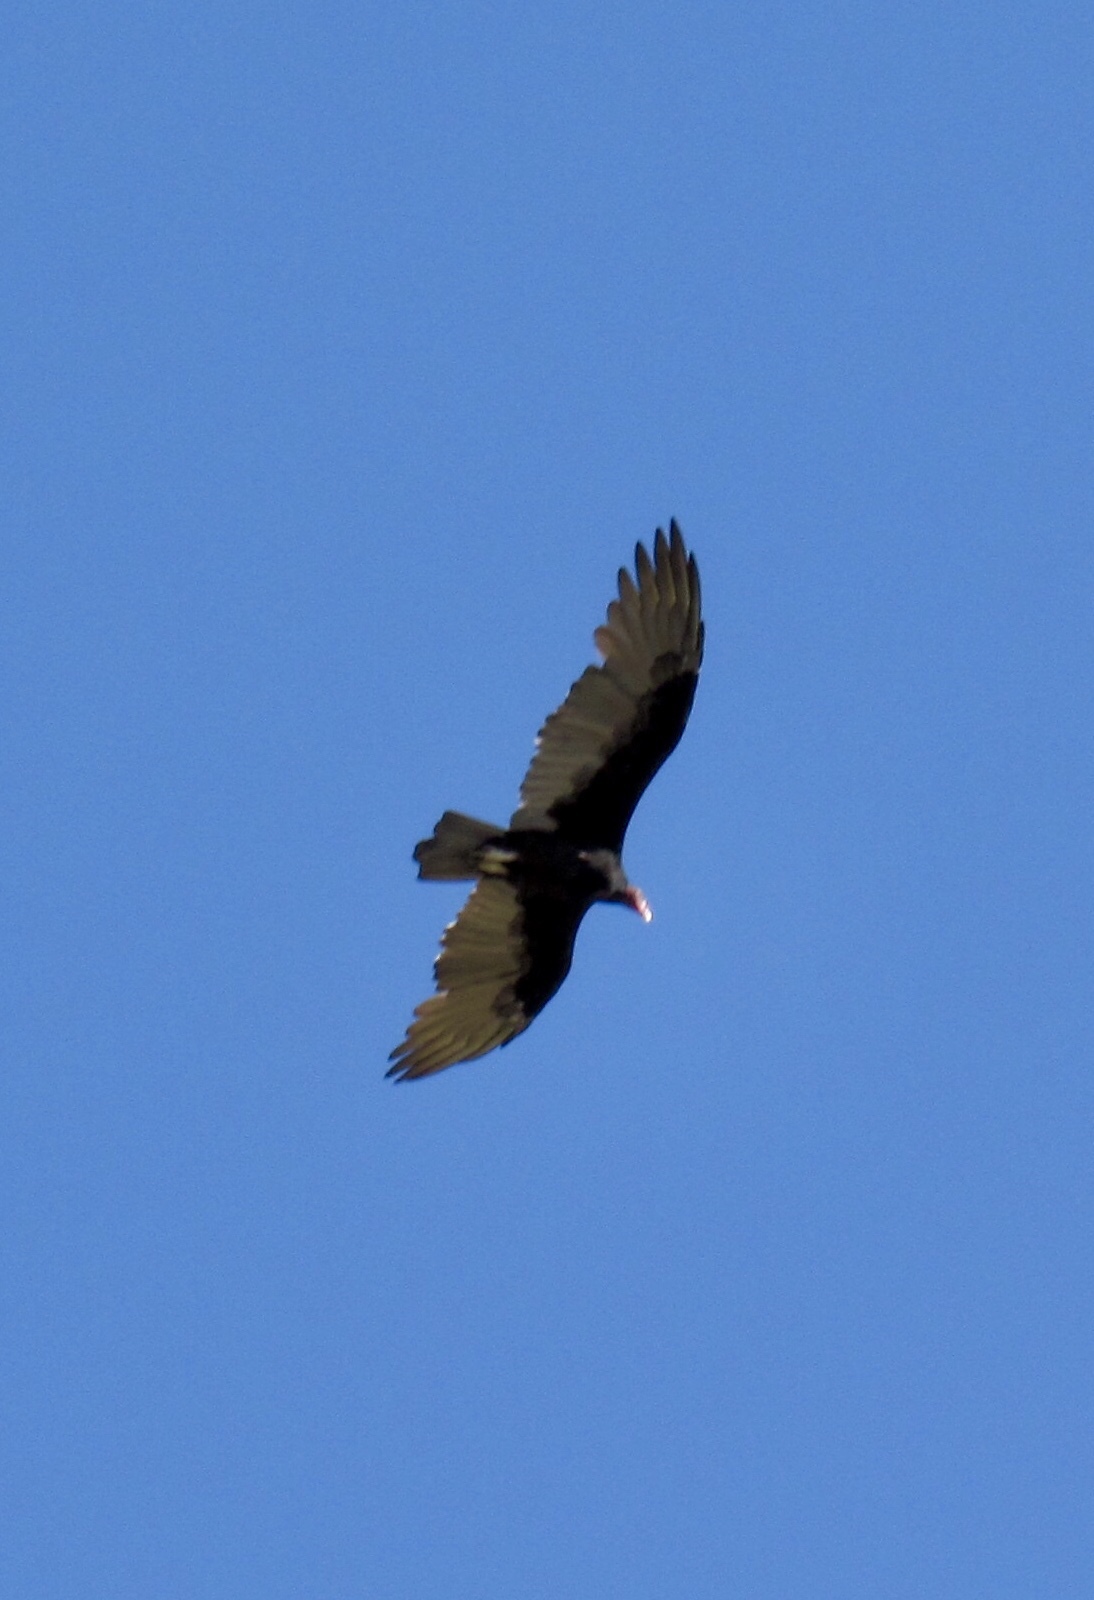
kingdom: Animalia
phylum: Chordata
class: Aves
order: Accipitriformes
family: Cathartidae
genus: Cathartes
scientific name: Cathartes aura
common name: Turkey vulture
